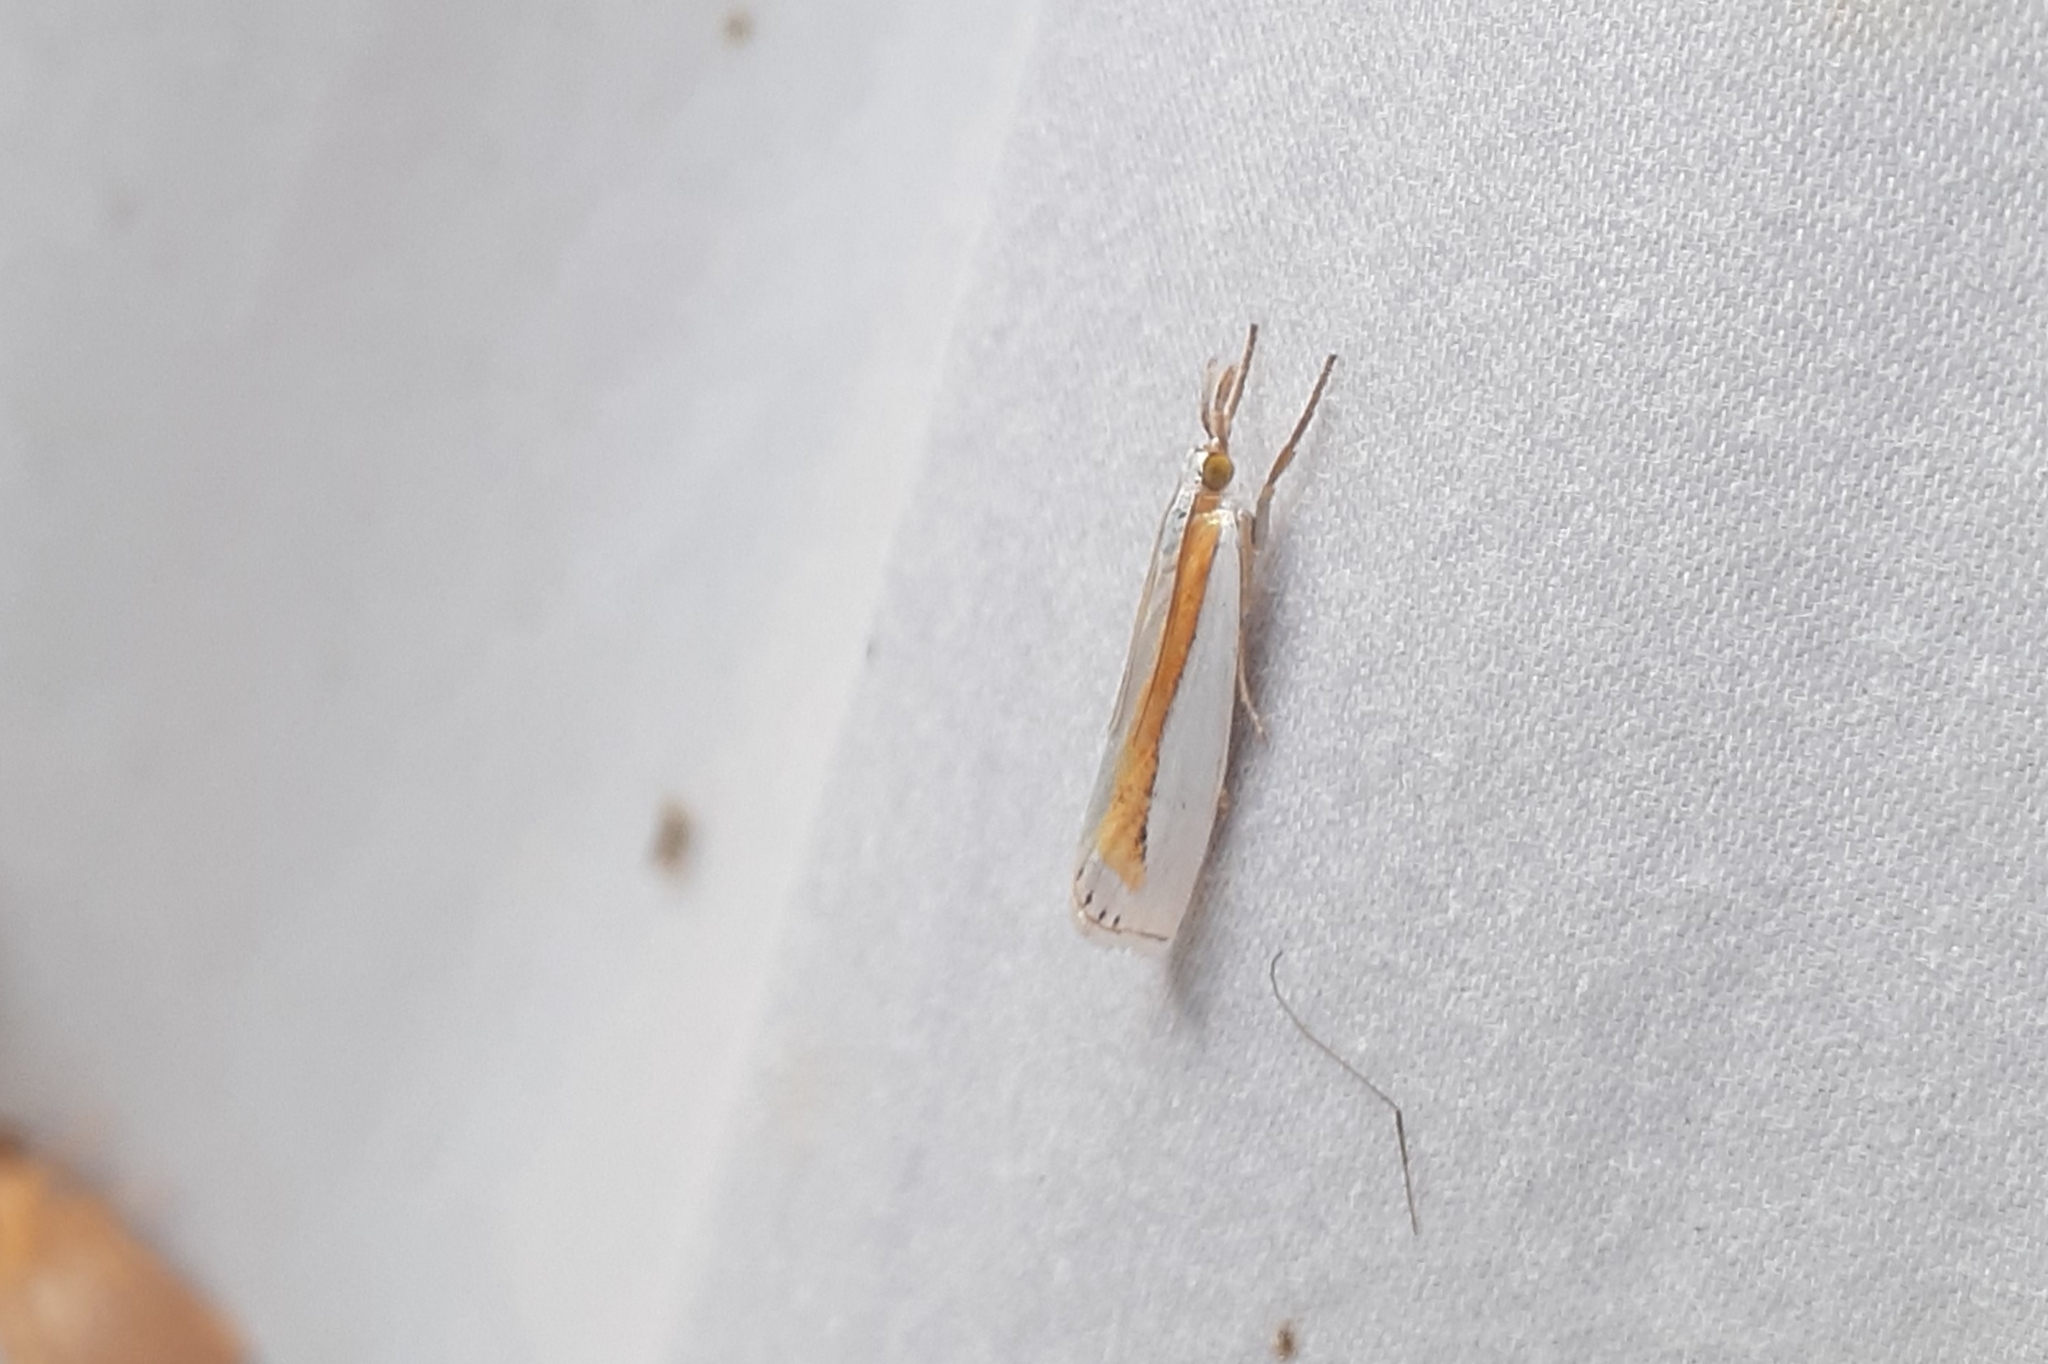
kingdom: Animalia
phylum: Arthropoda
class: Insecta
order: Lepidoptera
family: Crambidae
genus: Crambus
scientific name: Crambus girardellus
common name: Girard's grass-veneer
